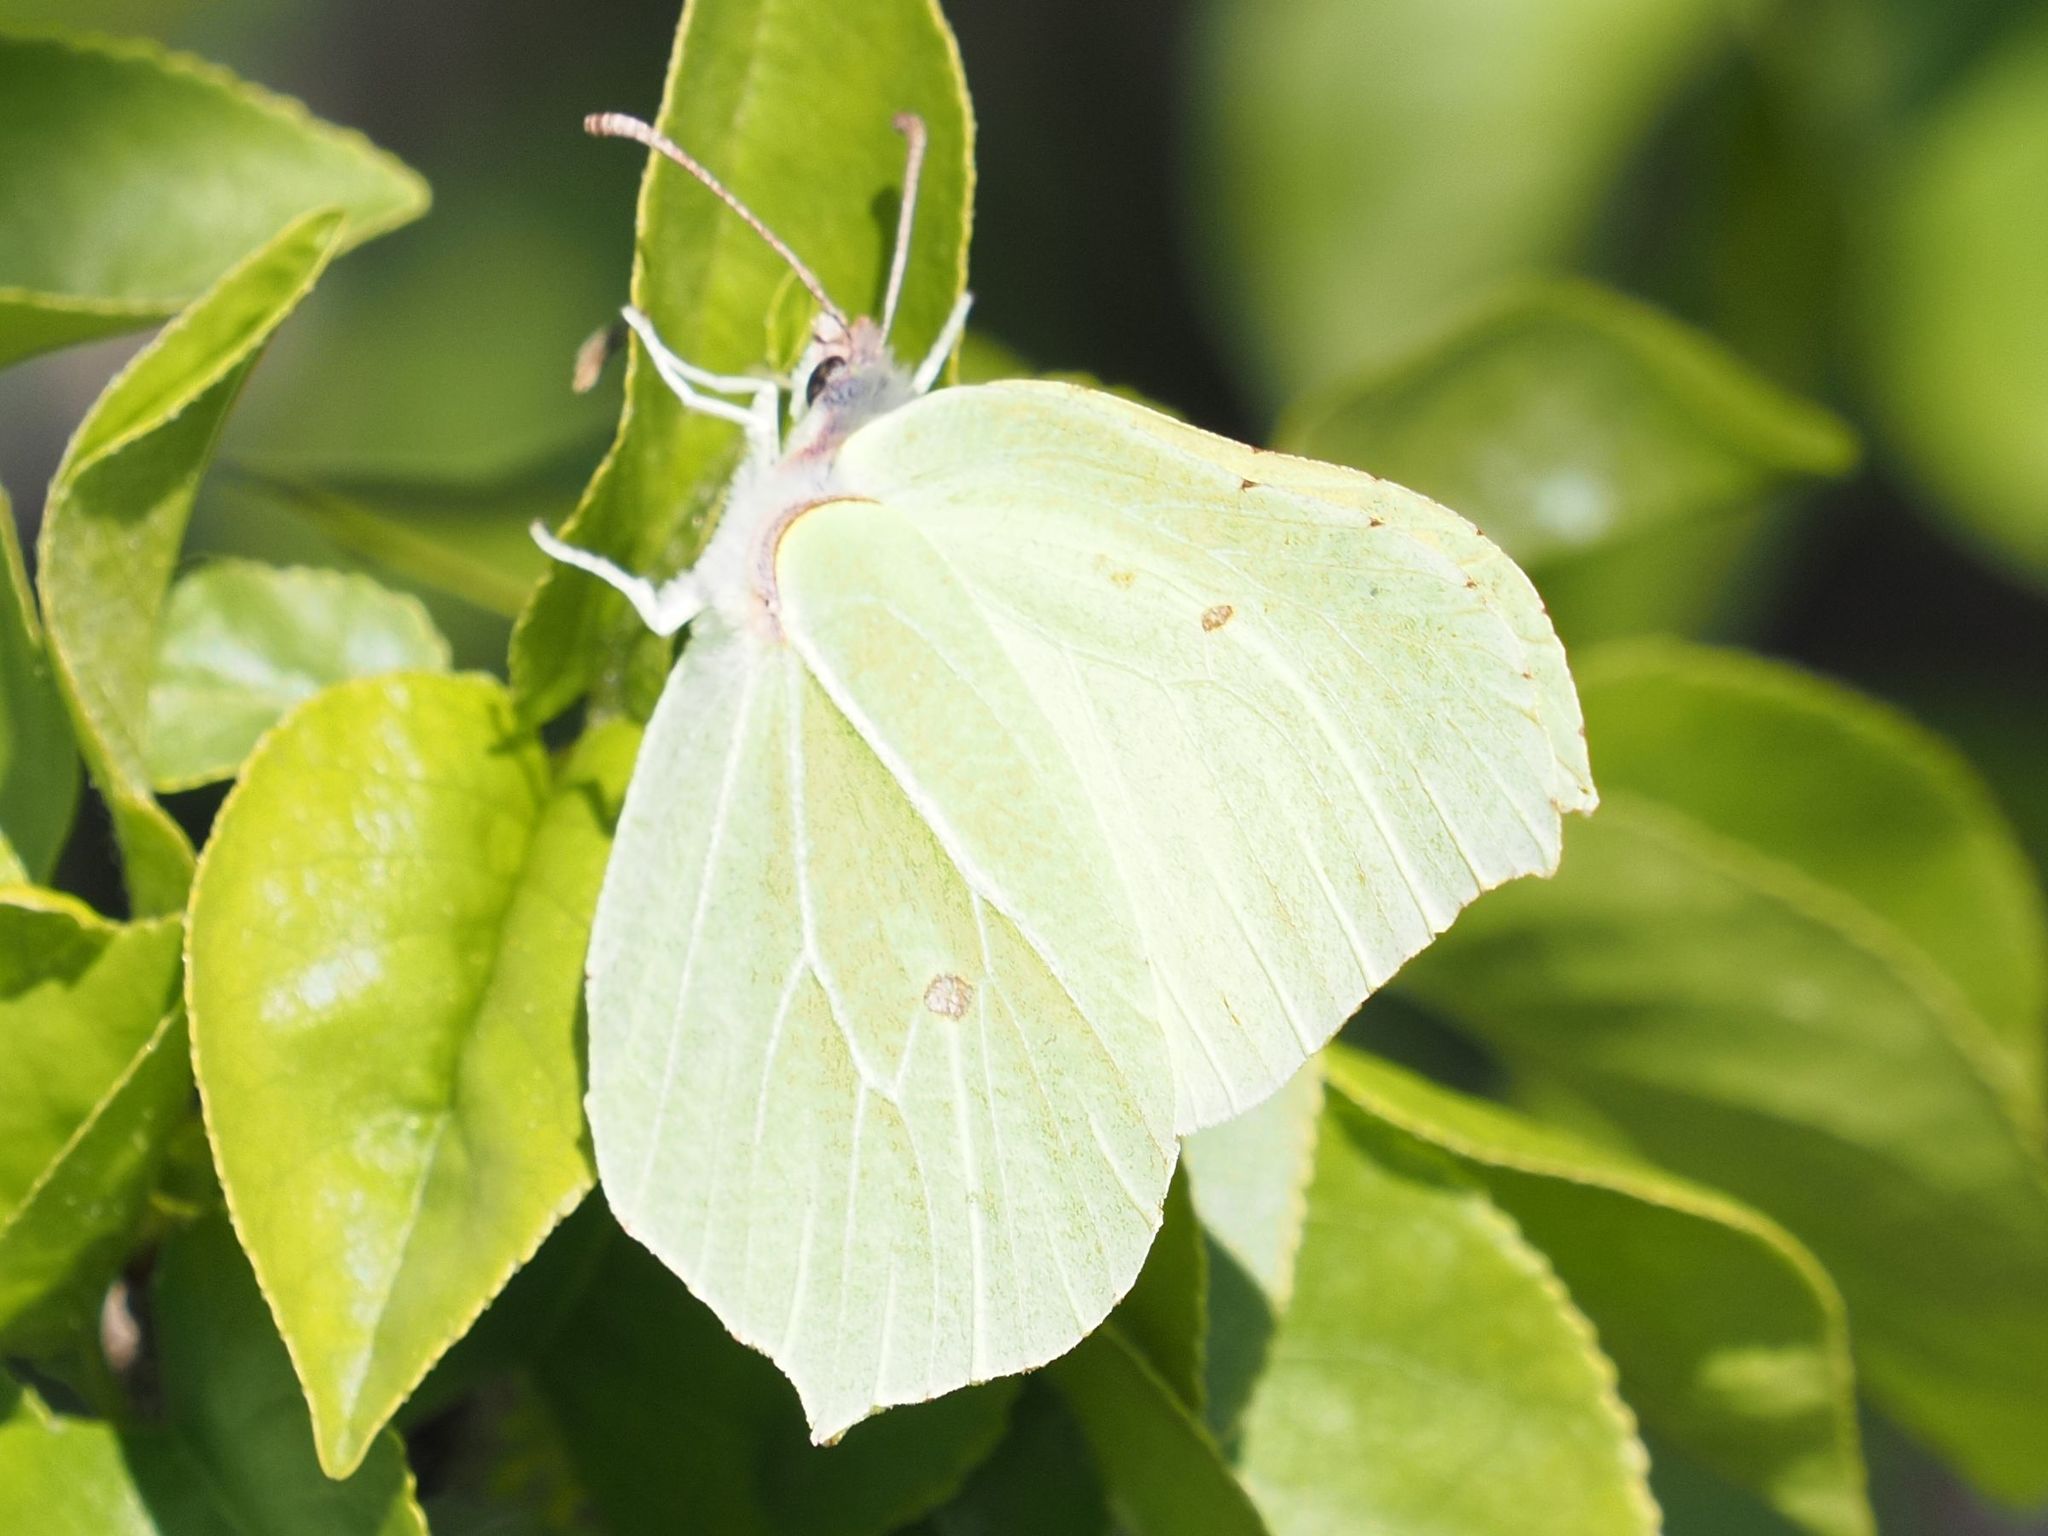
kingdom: Animalia
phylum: Arthropoda
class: Insecta
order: Lepidoptera
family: Pieridae
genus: Gonepteryx
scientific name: Gonepteryx rhamni
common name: Brimstone
